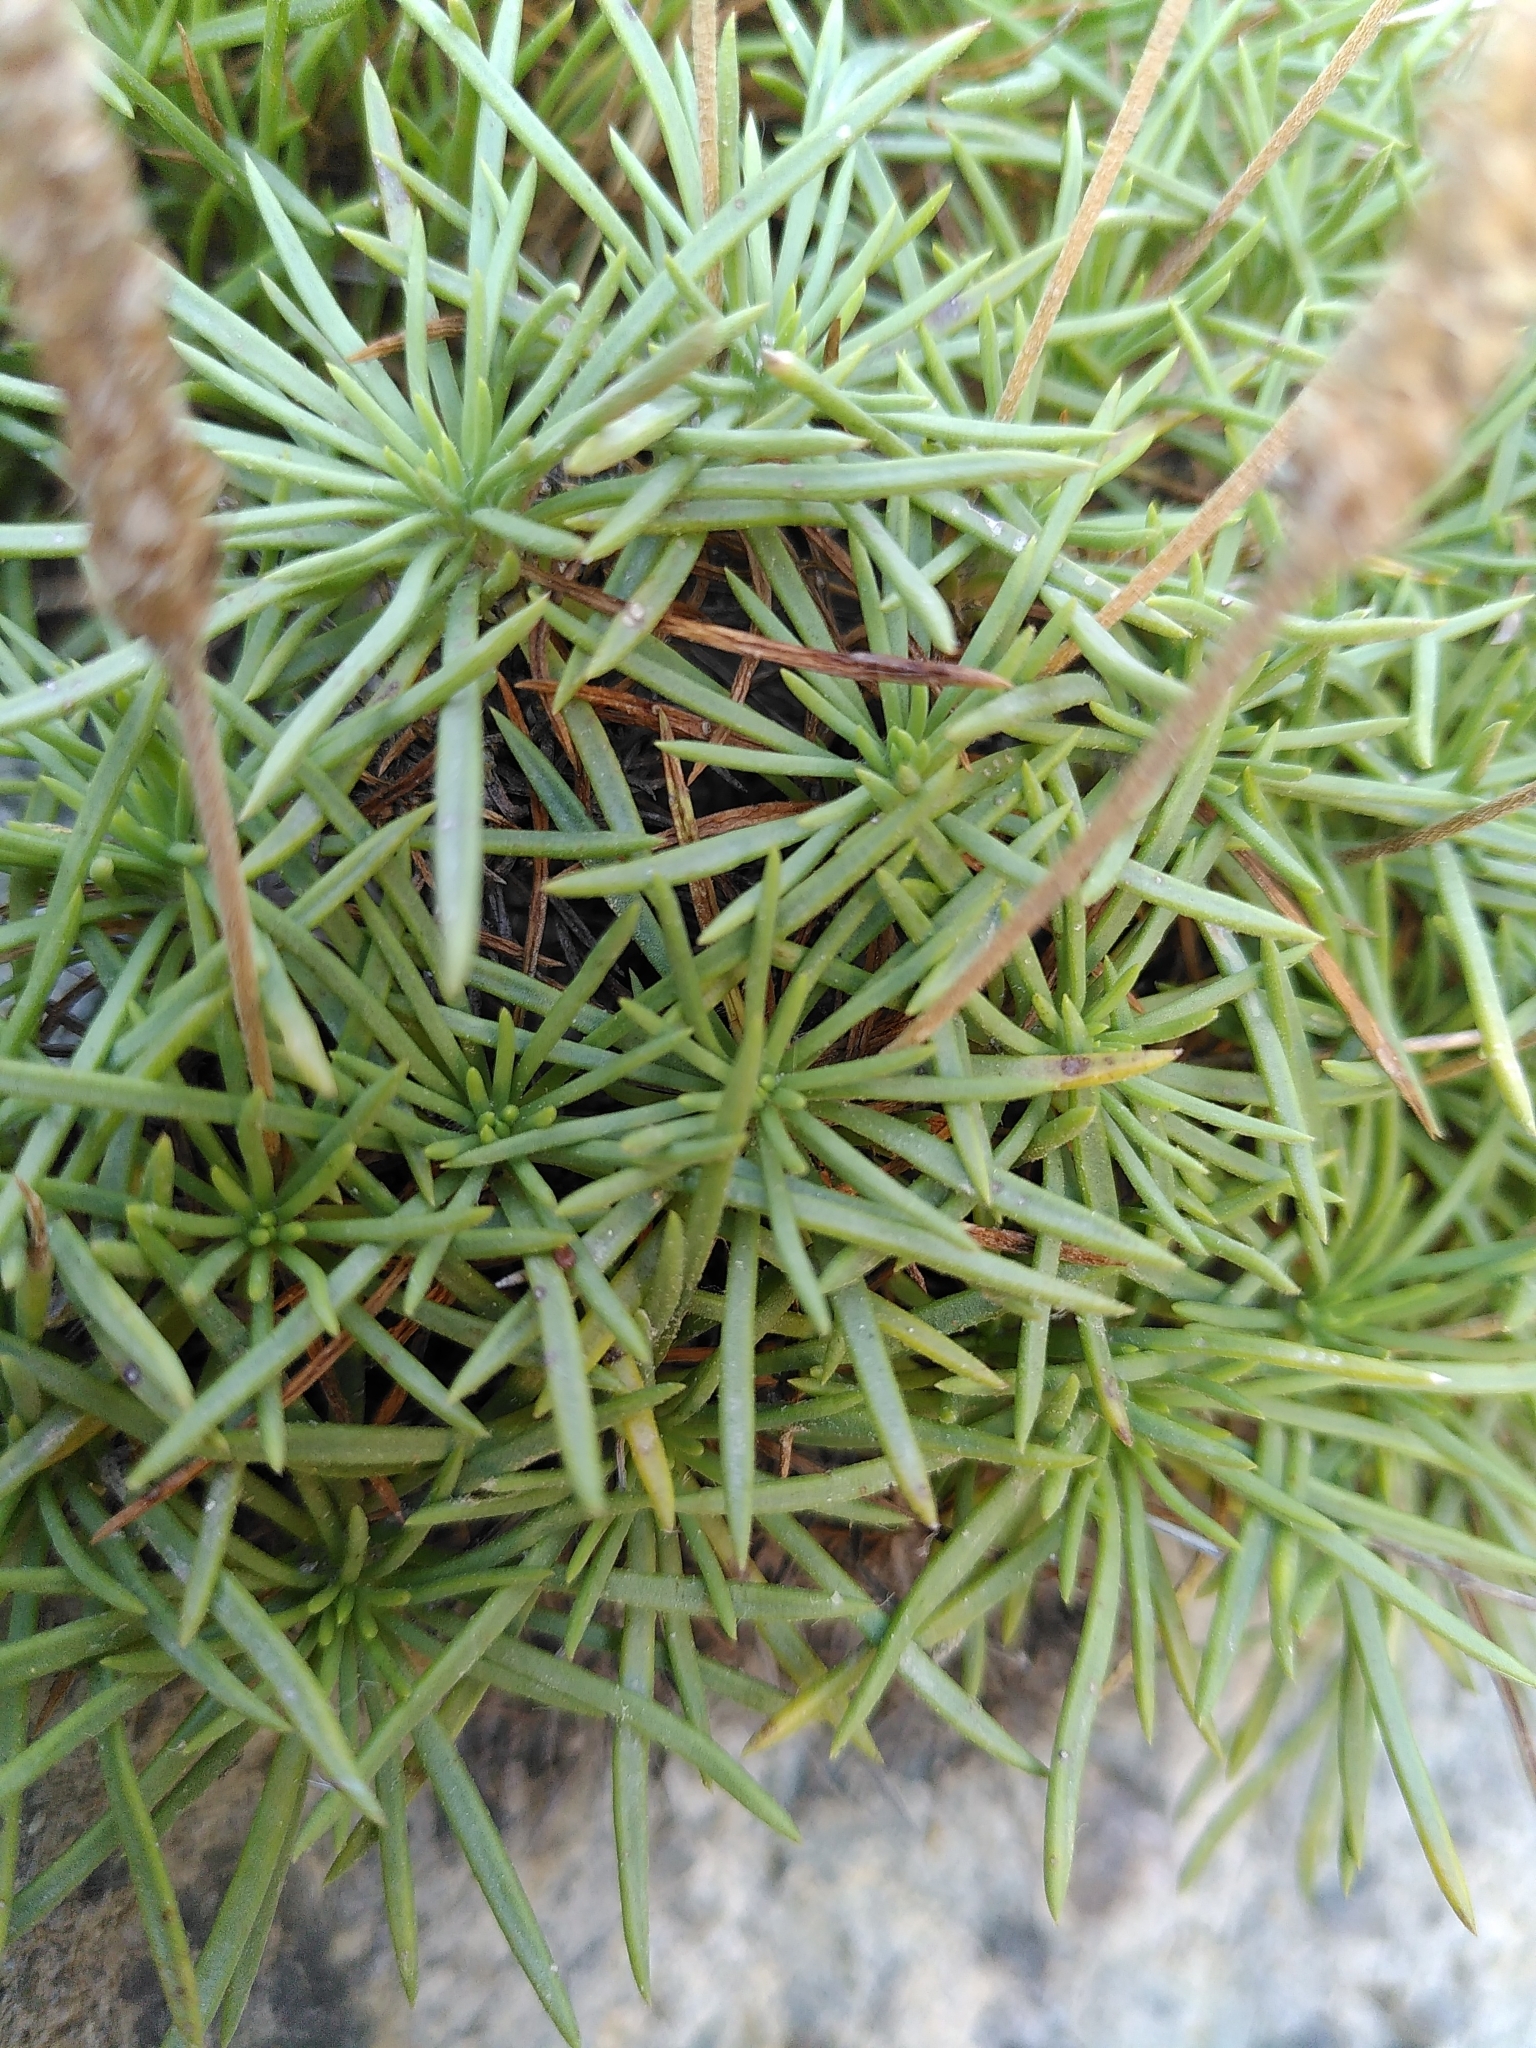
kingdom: Plantae
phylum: Tracheophyta
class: Magnoliopsida
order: Lamiales
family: Plantaginaceae
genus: Plantago
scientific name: Plantago subulata
